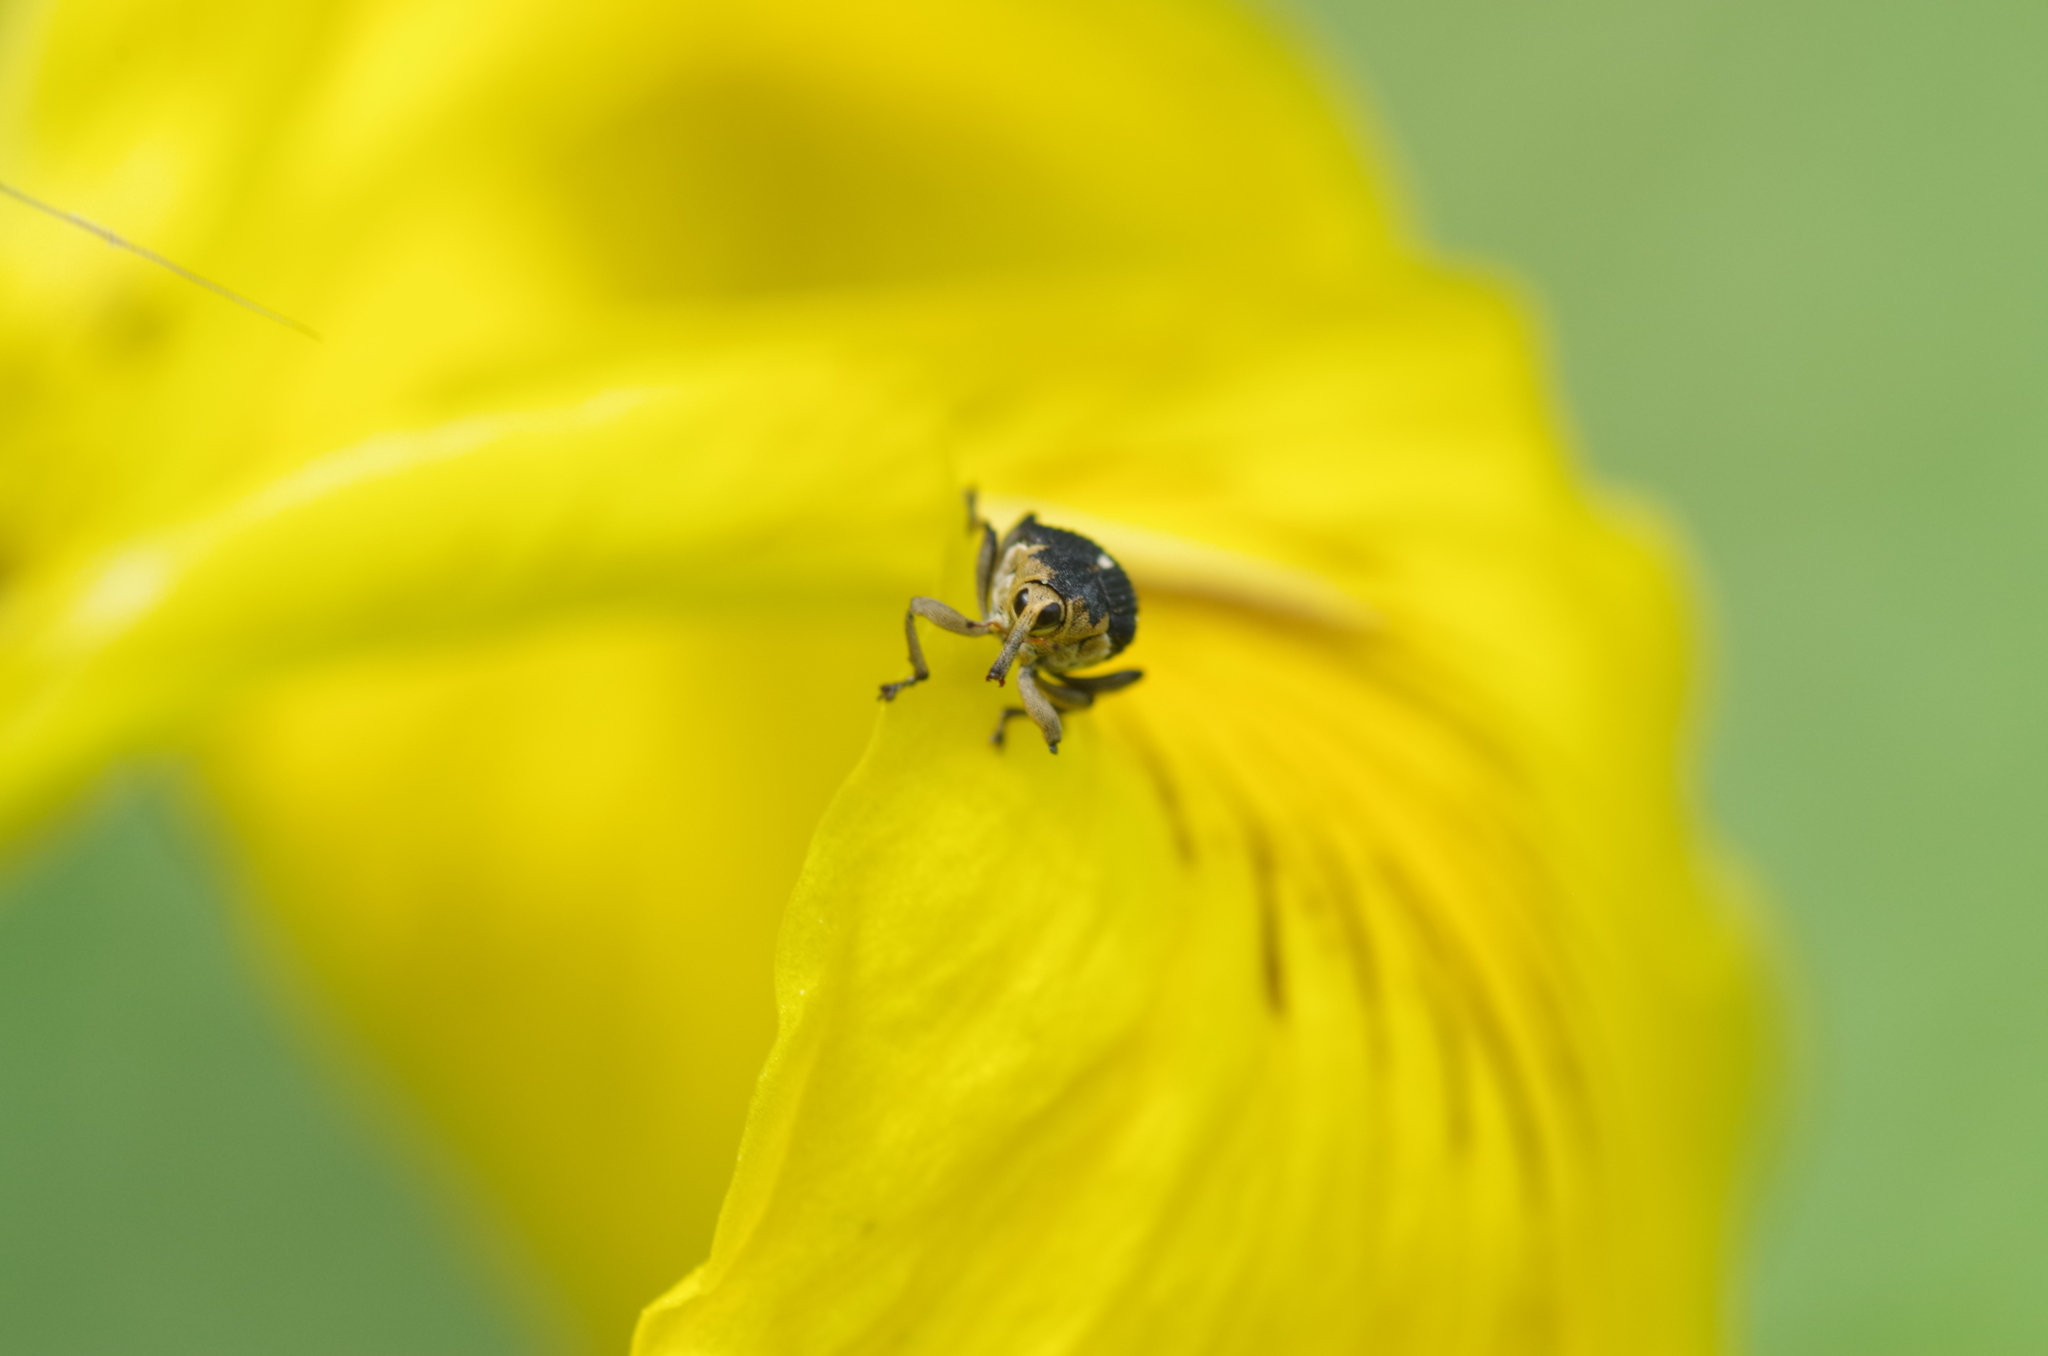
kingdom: Animalia
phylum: Arthropoda
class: Insecta
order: Coleoptera
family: Curculionidae
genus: Mononychus
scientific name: Mononychus punctumalbum
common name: Iris weevil
